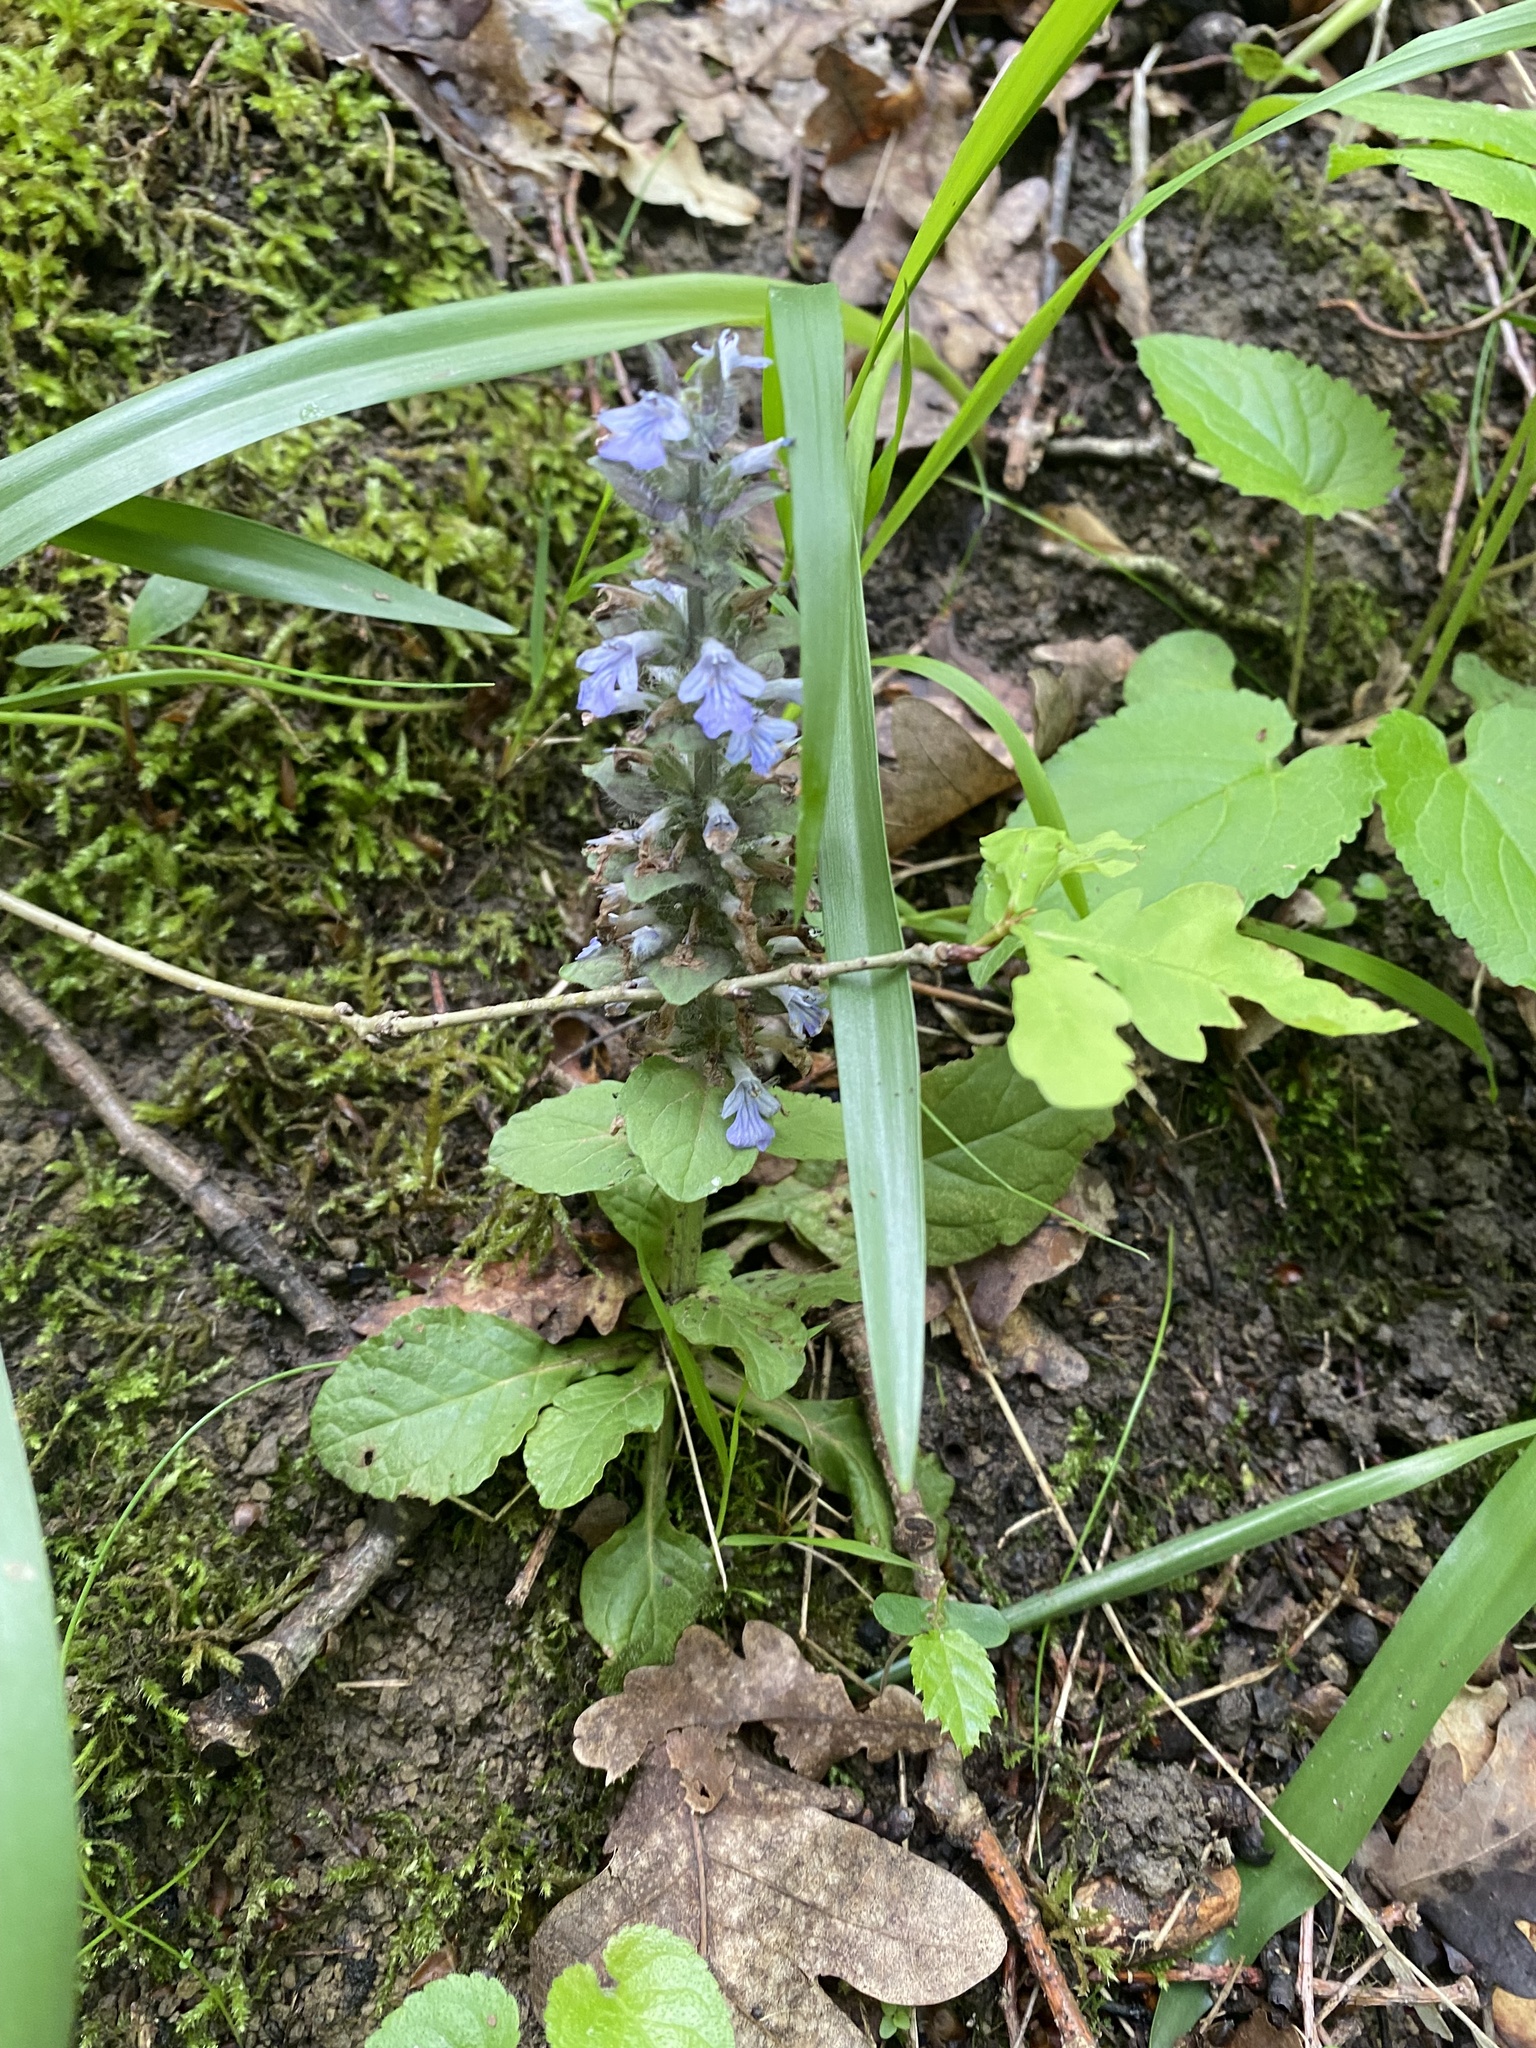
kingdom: Plantae
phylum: Tracheophyta
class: Magnoliopsida
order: Lamiales
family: Lamiaceae
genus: Ajuga
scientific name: Ajuga reptans
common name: Bugle
